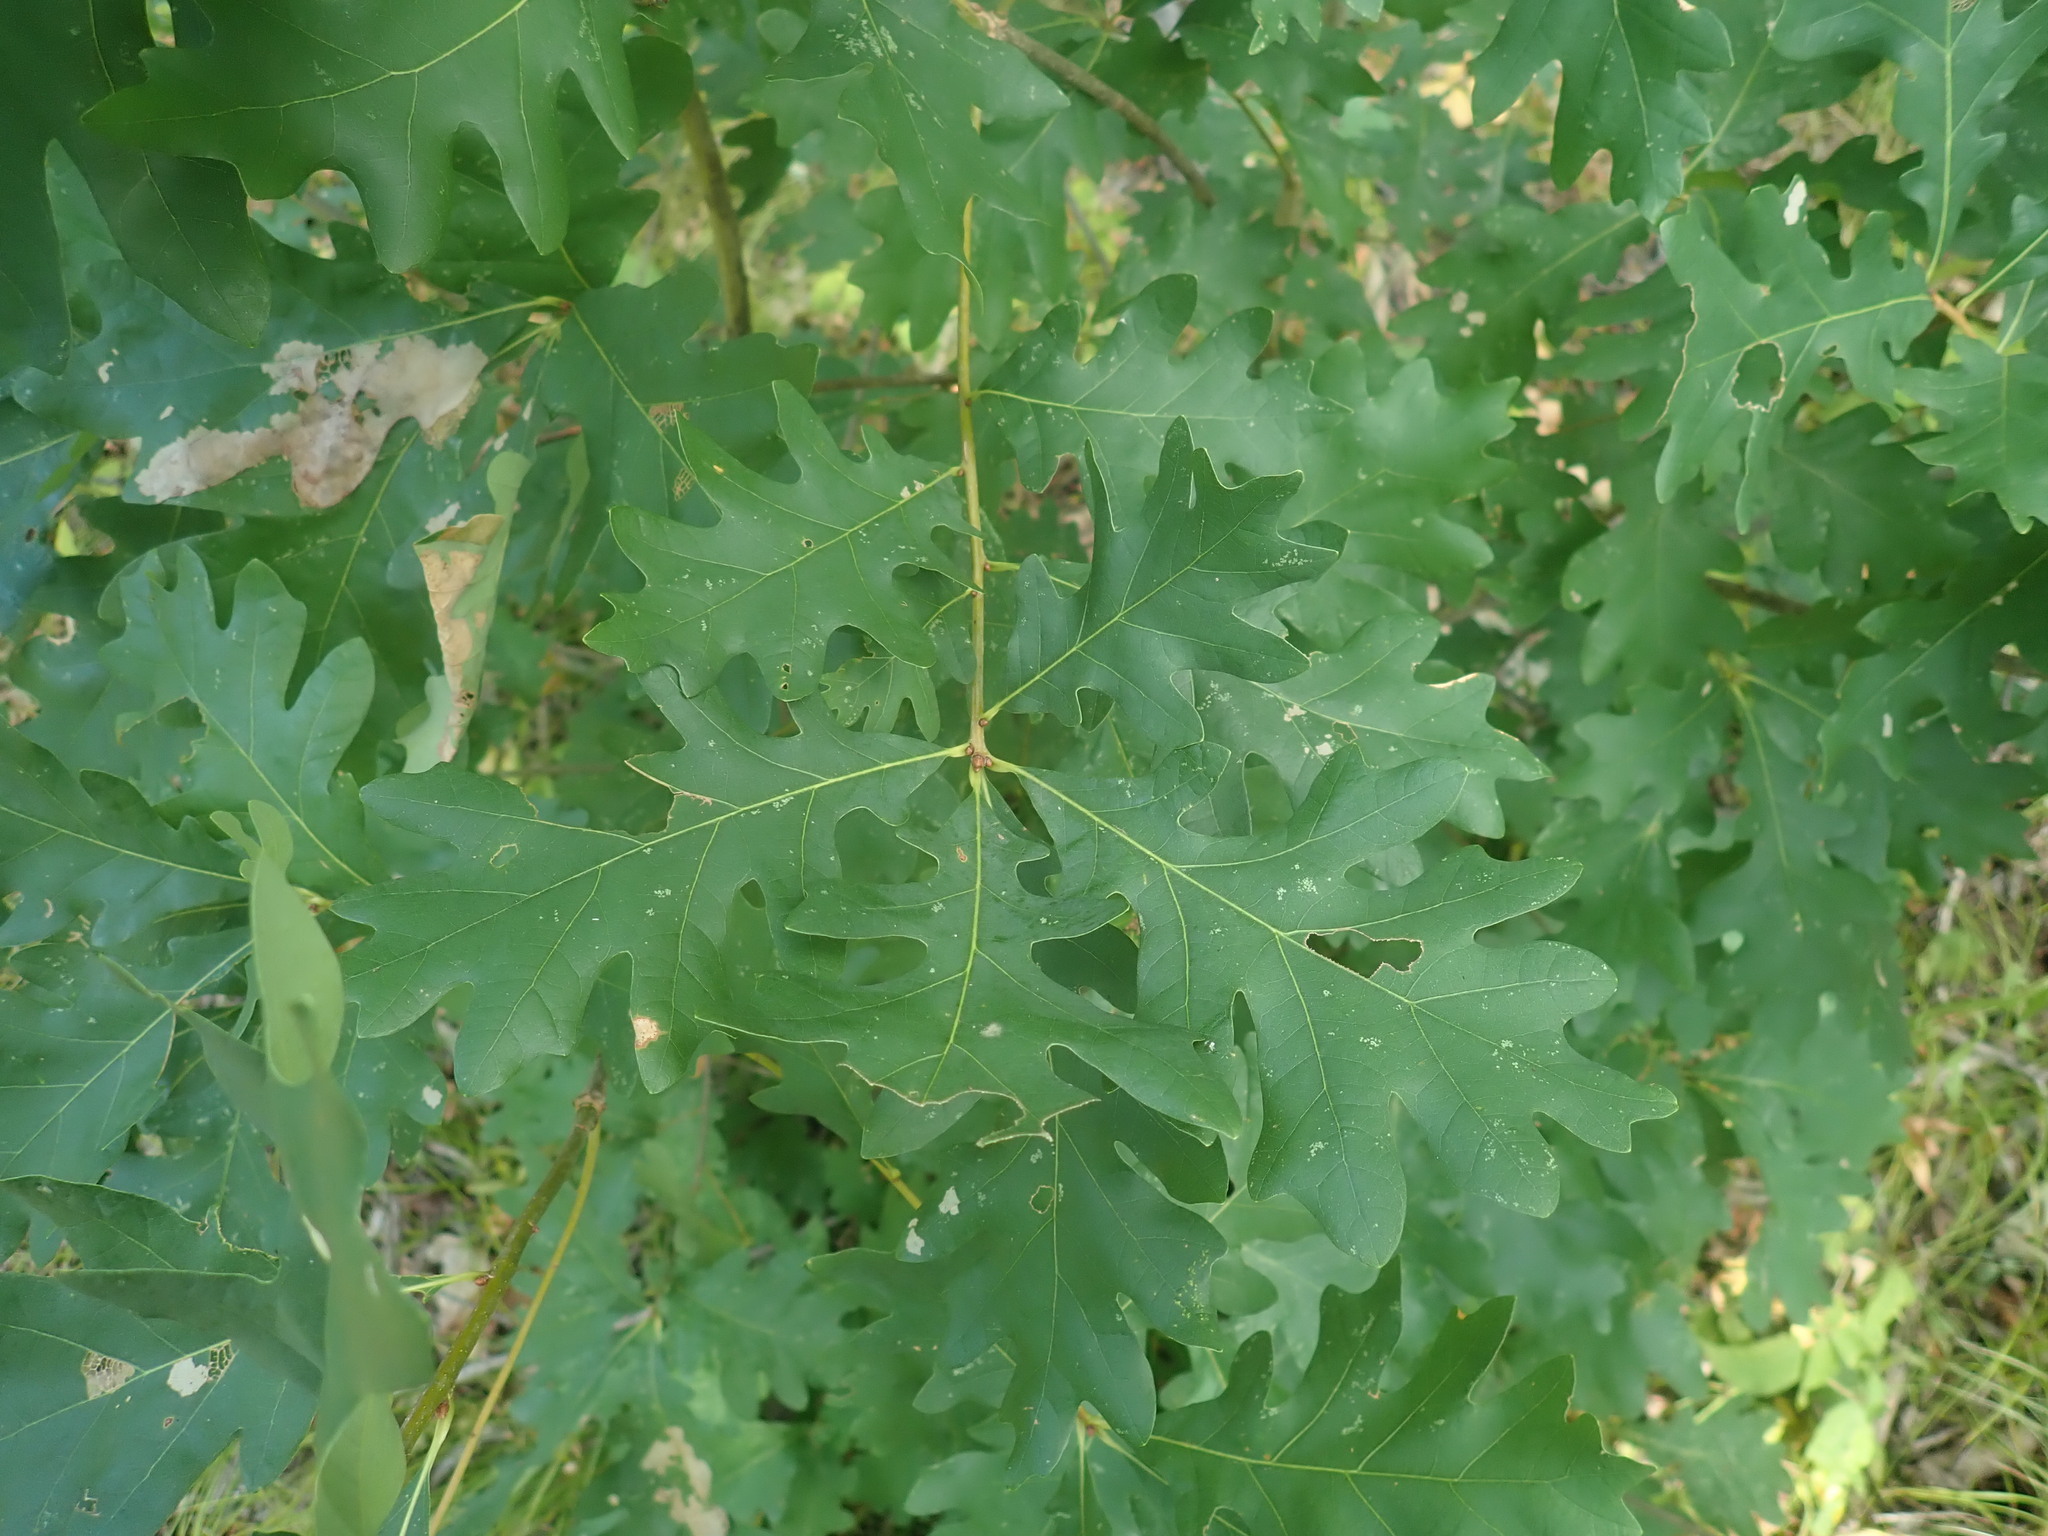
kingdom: Plantae
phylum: Tracheophyta
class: Magnoliopsida
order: Fagales
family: Fagaceae
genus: Quercus
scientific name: Quercus alba
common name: White oak
